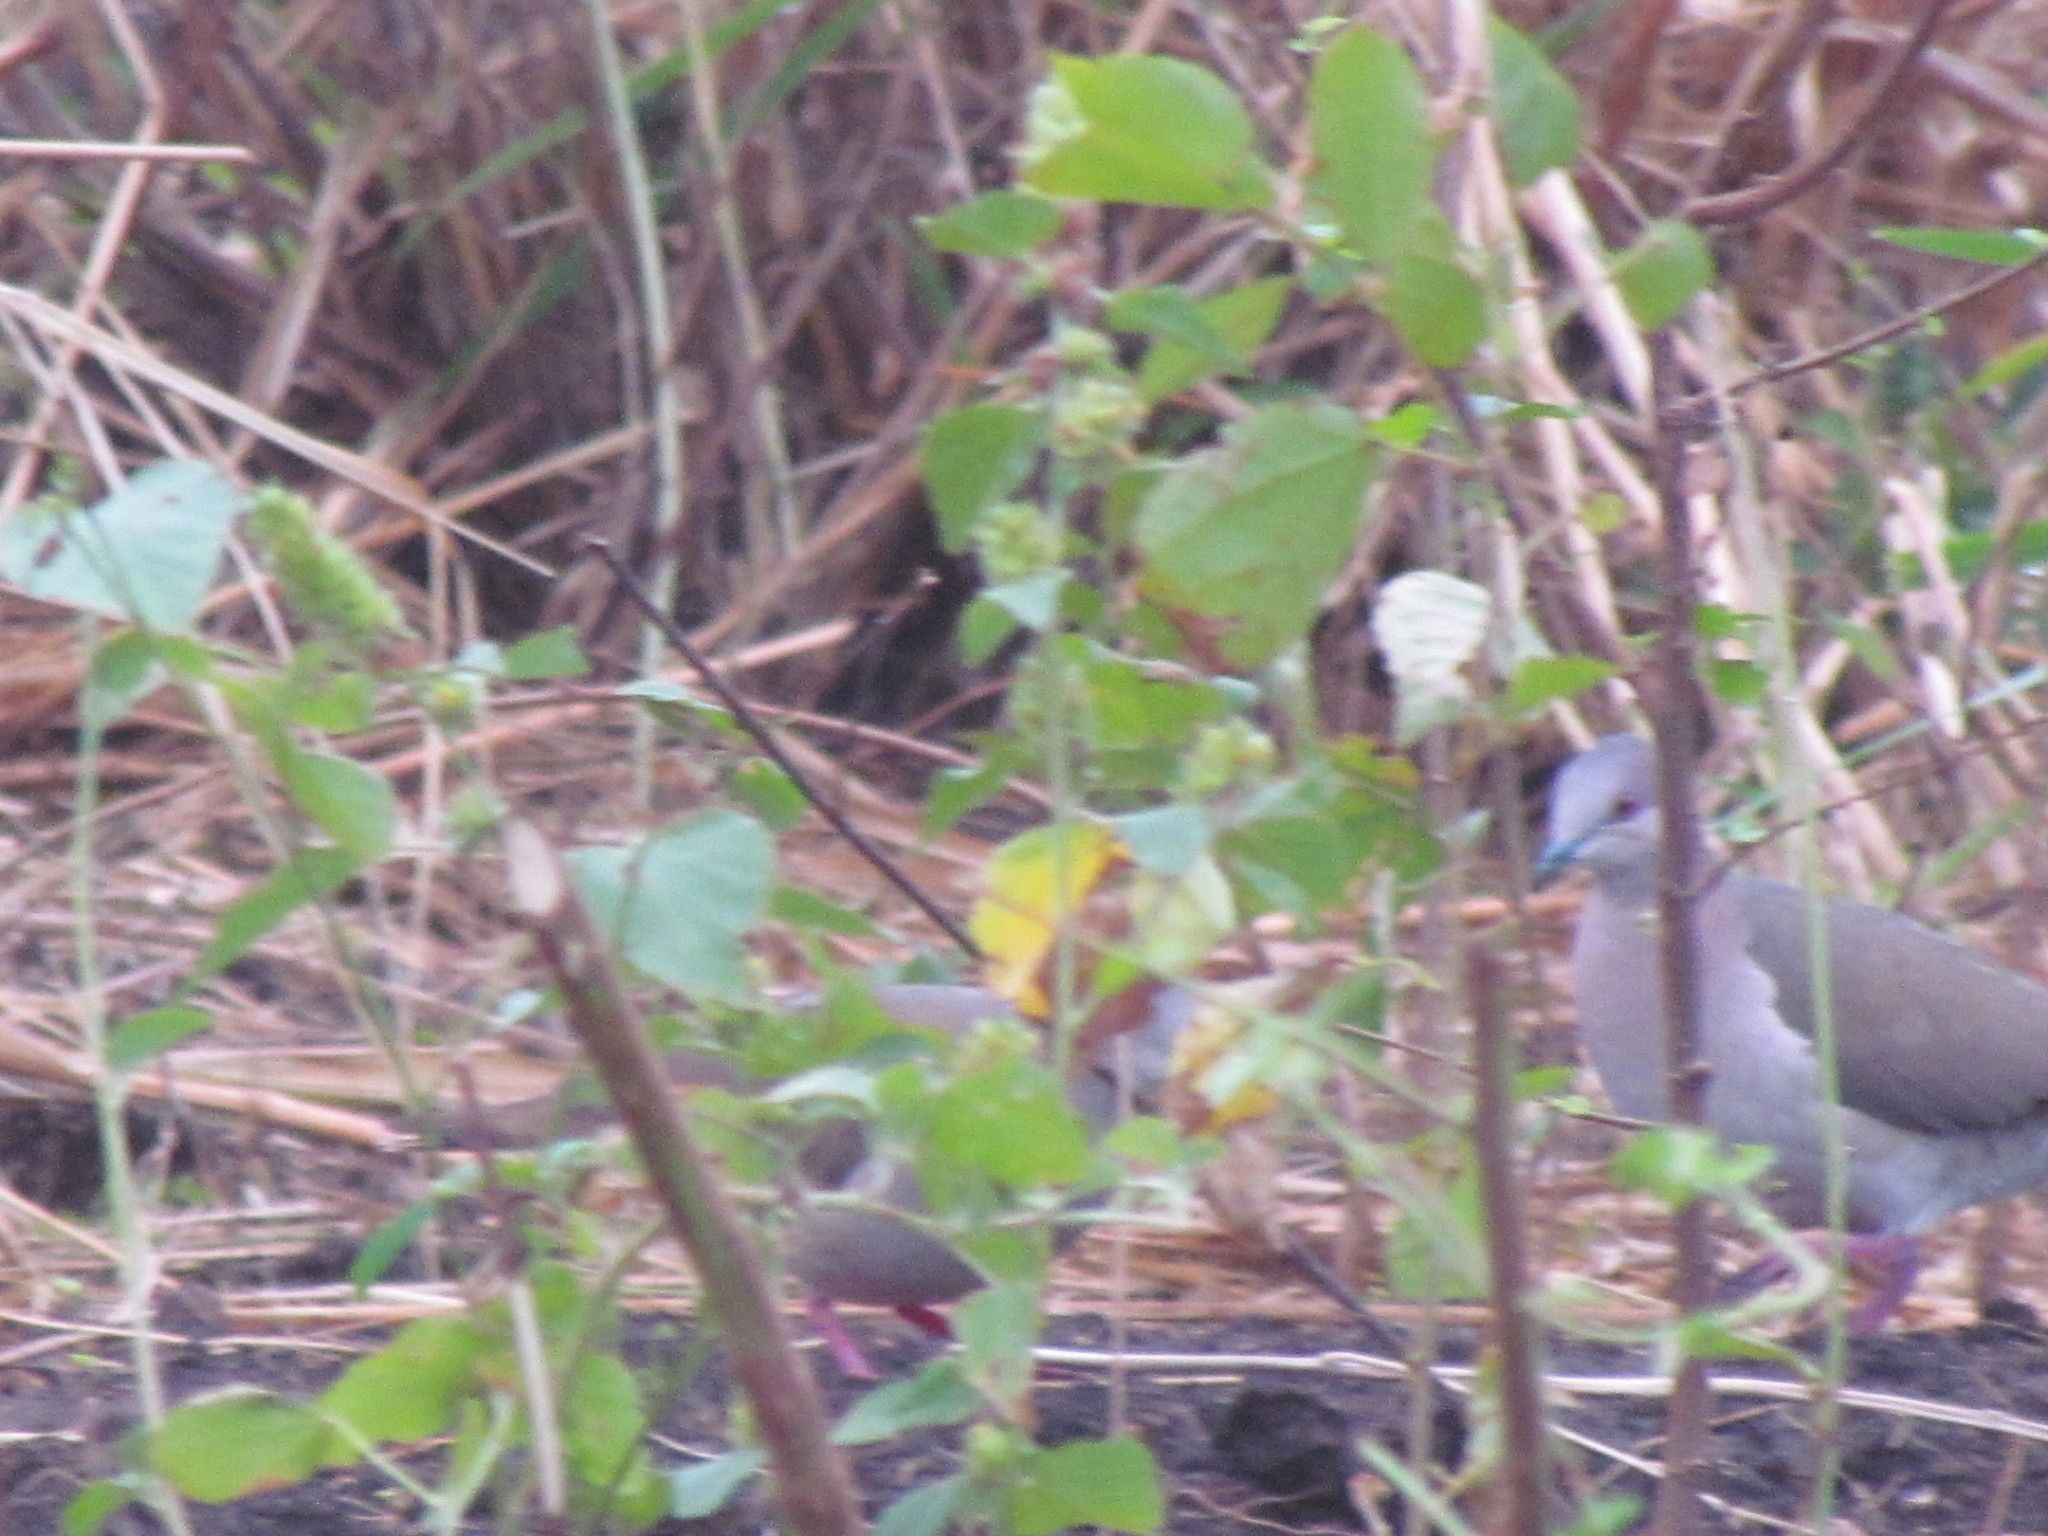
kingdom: Animalia
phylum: Chordata
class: Aves
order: Columbiformes
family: Columbidae
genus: Leptotila
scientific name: Leptotila verreauxi
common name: White-tipped dove
